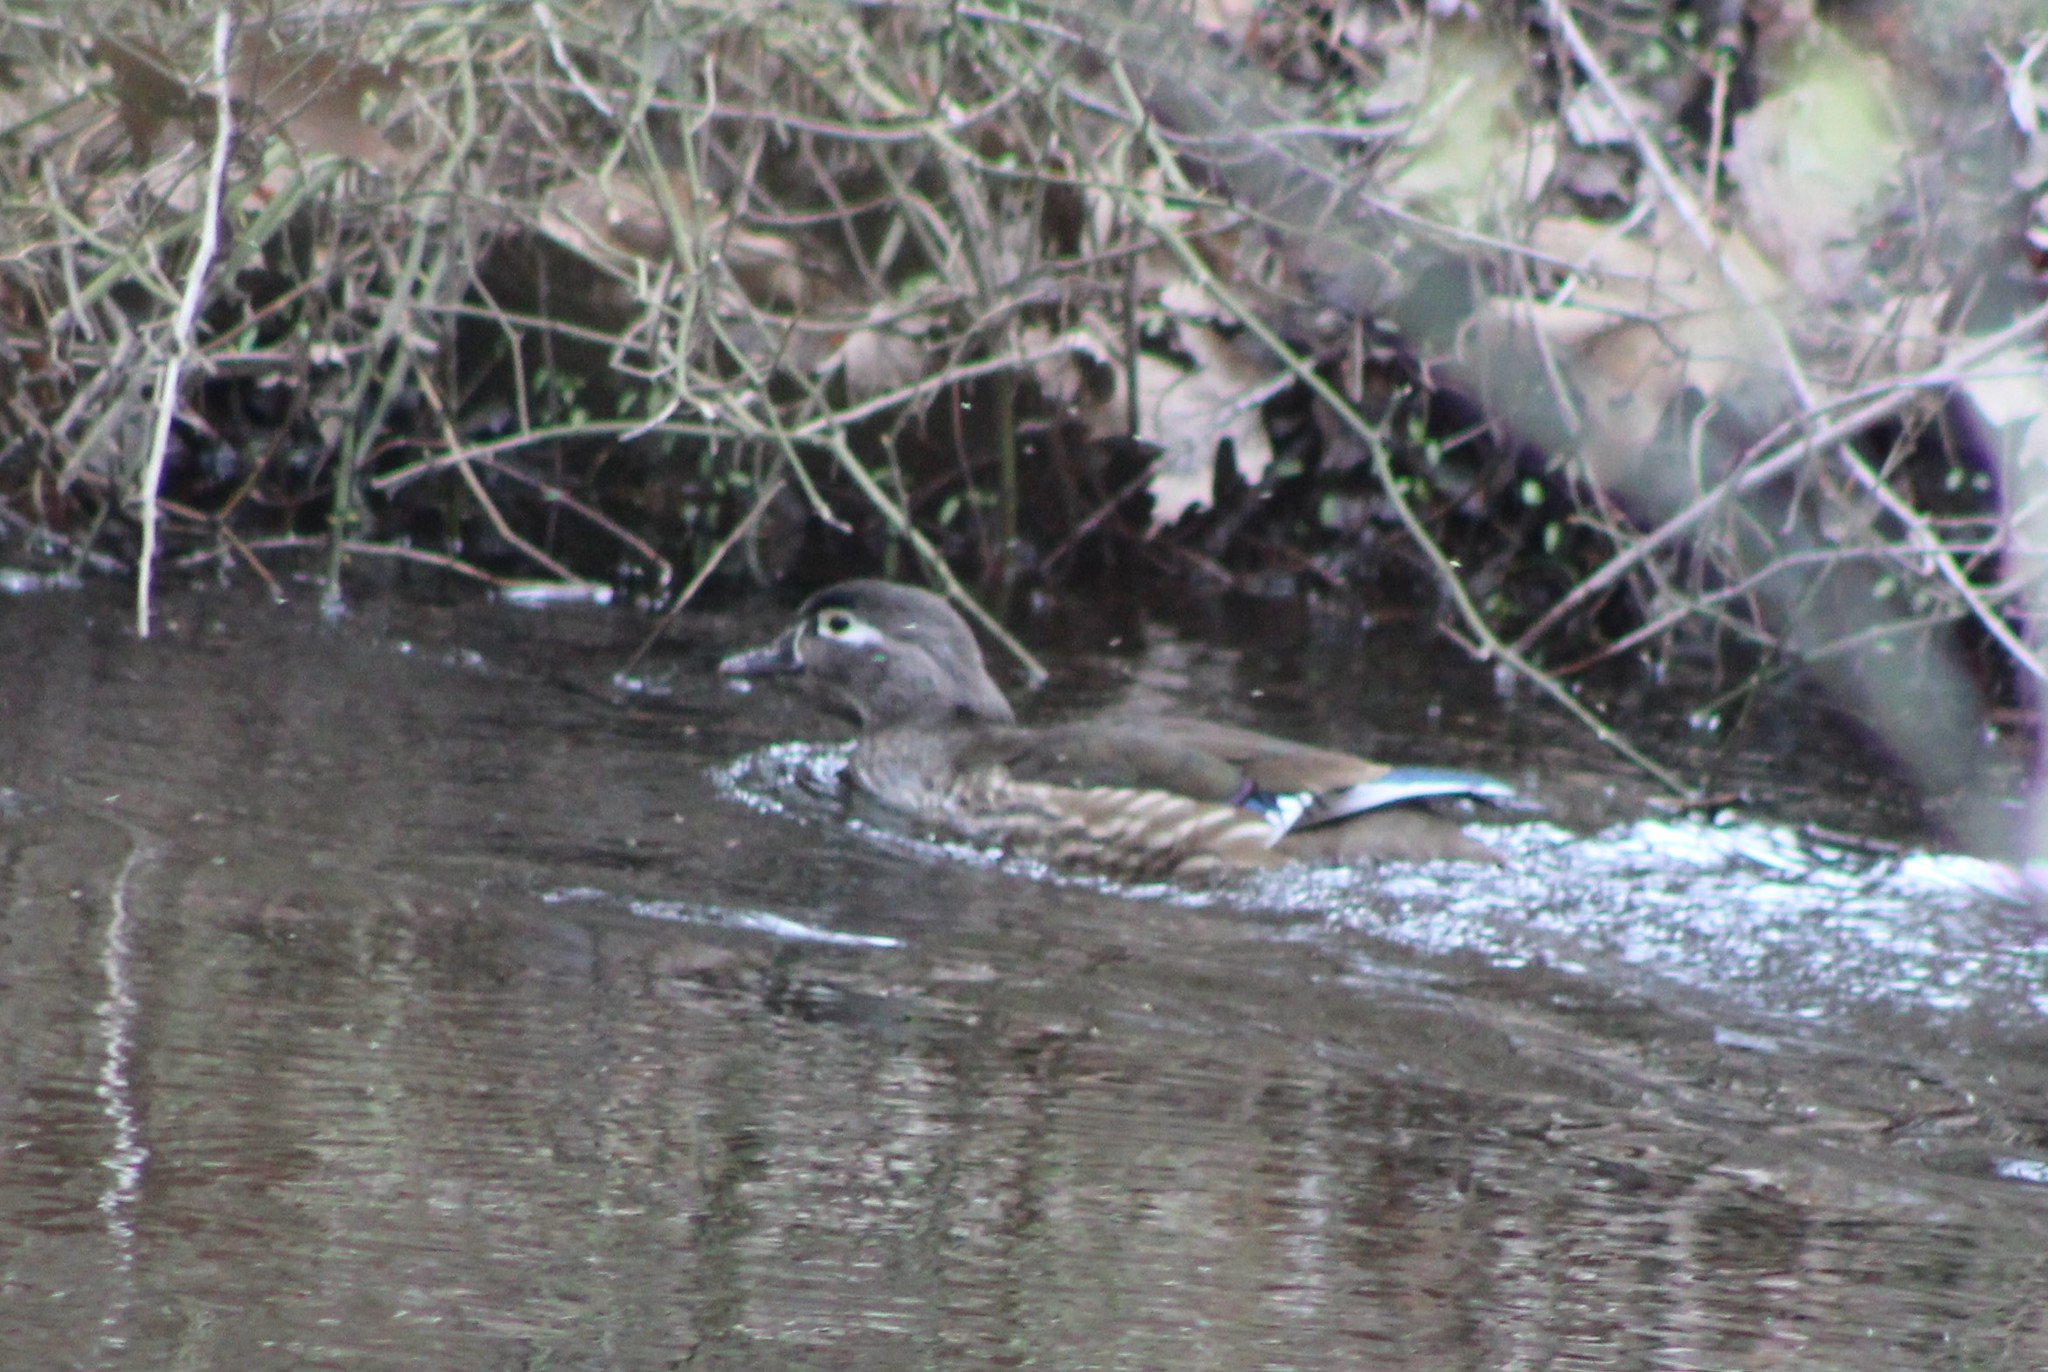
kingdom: Animalia
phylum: Chordata
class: Aves
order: Anseriformes
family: Anatidae
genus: Aix
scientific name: Aix sponsa
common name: Wood duck
